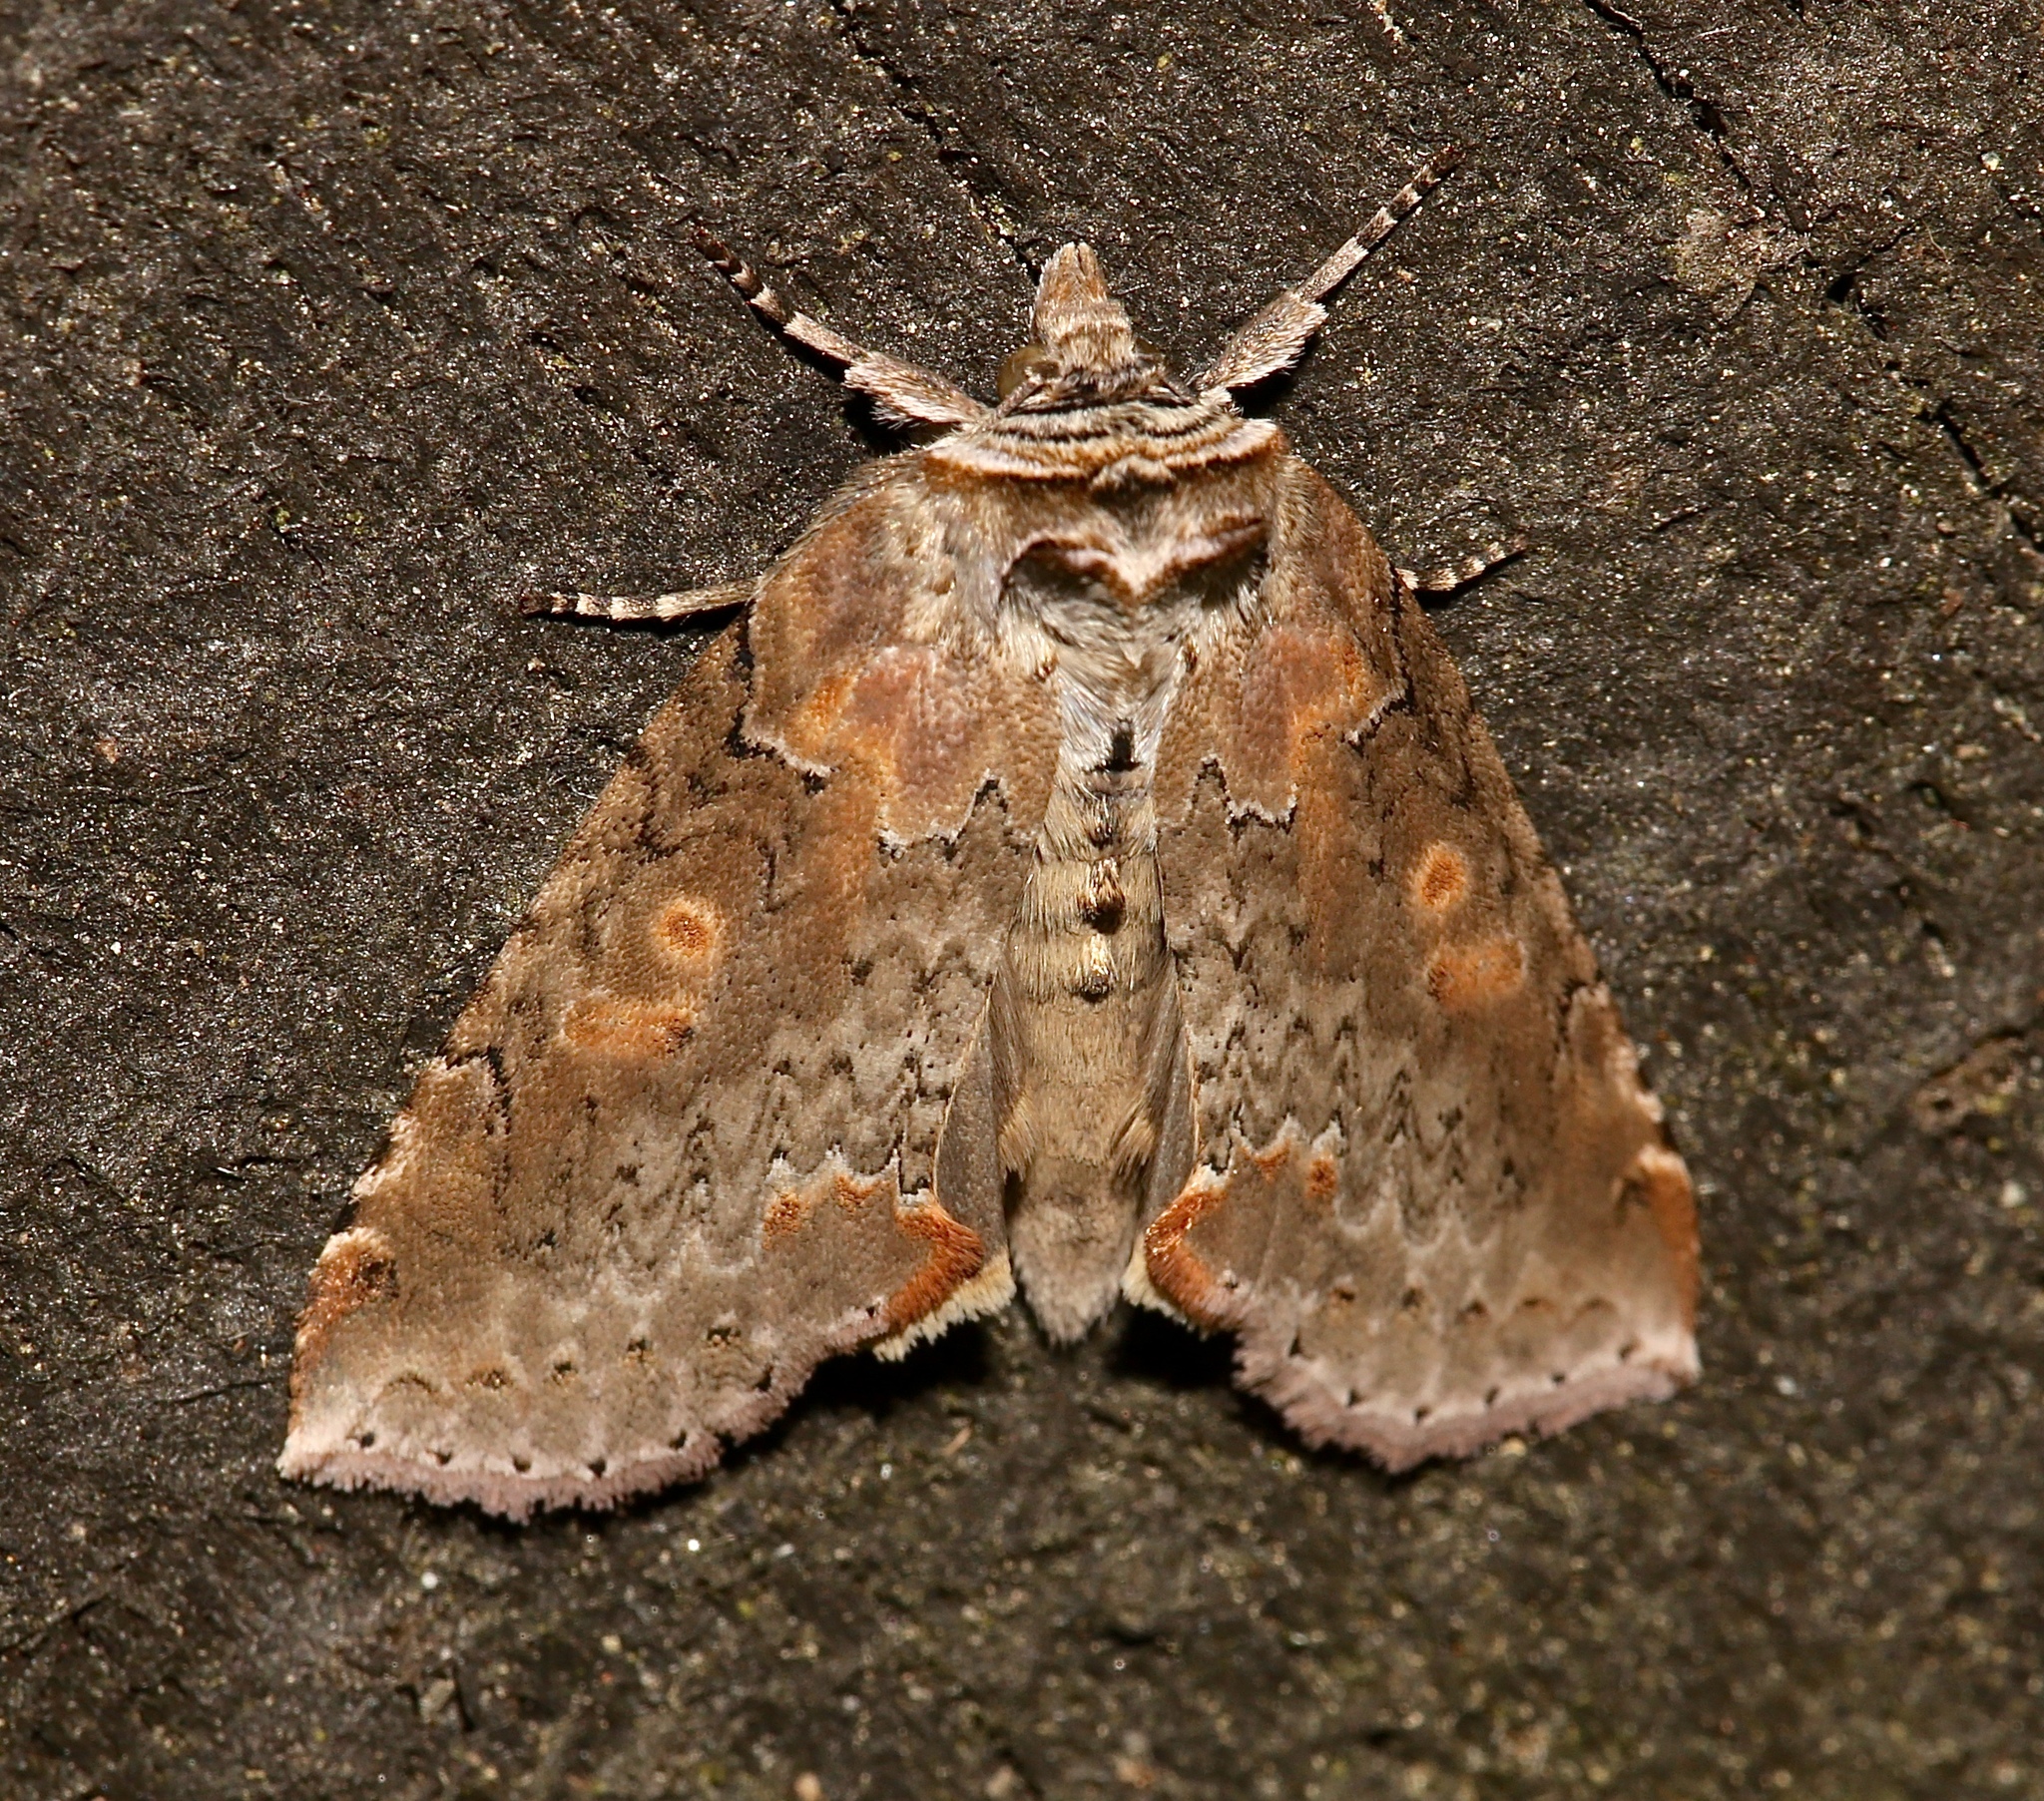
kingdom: Animalia
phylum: Arthropoda
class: Insecta
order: Lepidoptera
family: Drepanidae
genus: Pseudothyatira
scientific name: Pseudothyatira cymatophoroides
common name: Tufted thyatirid moth
